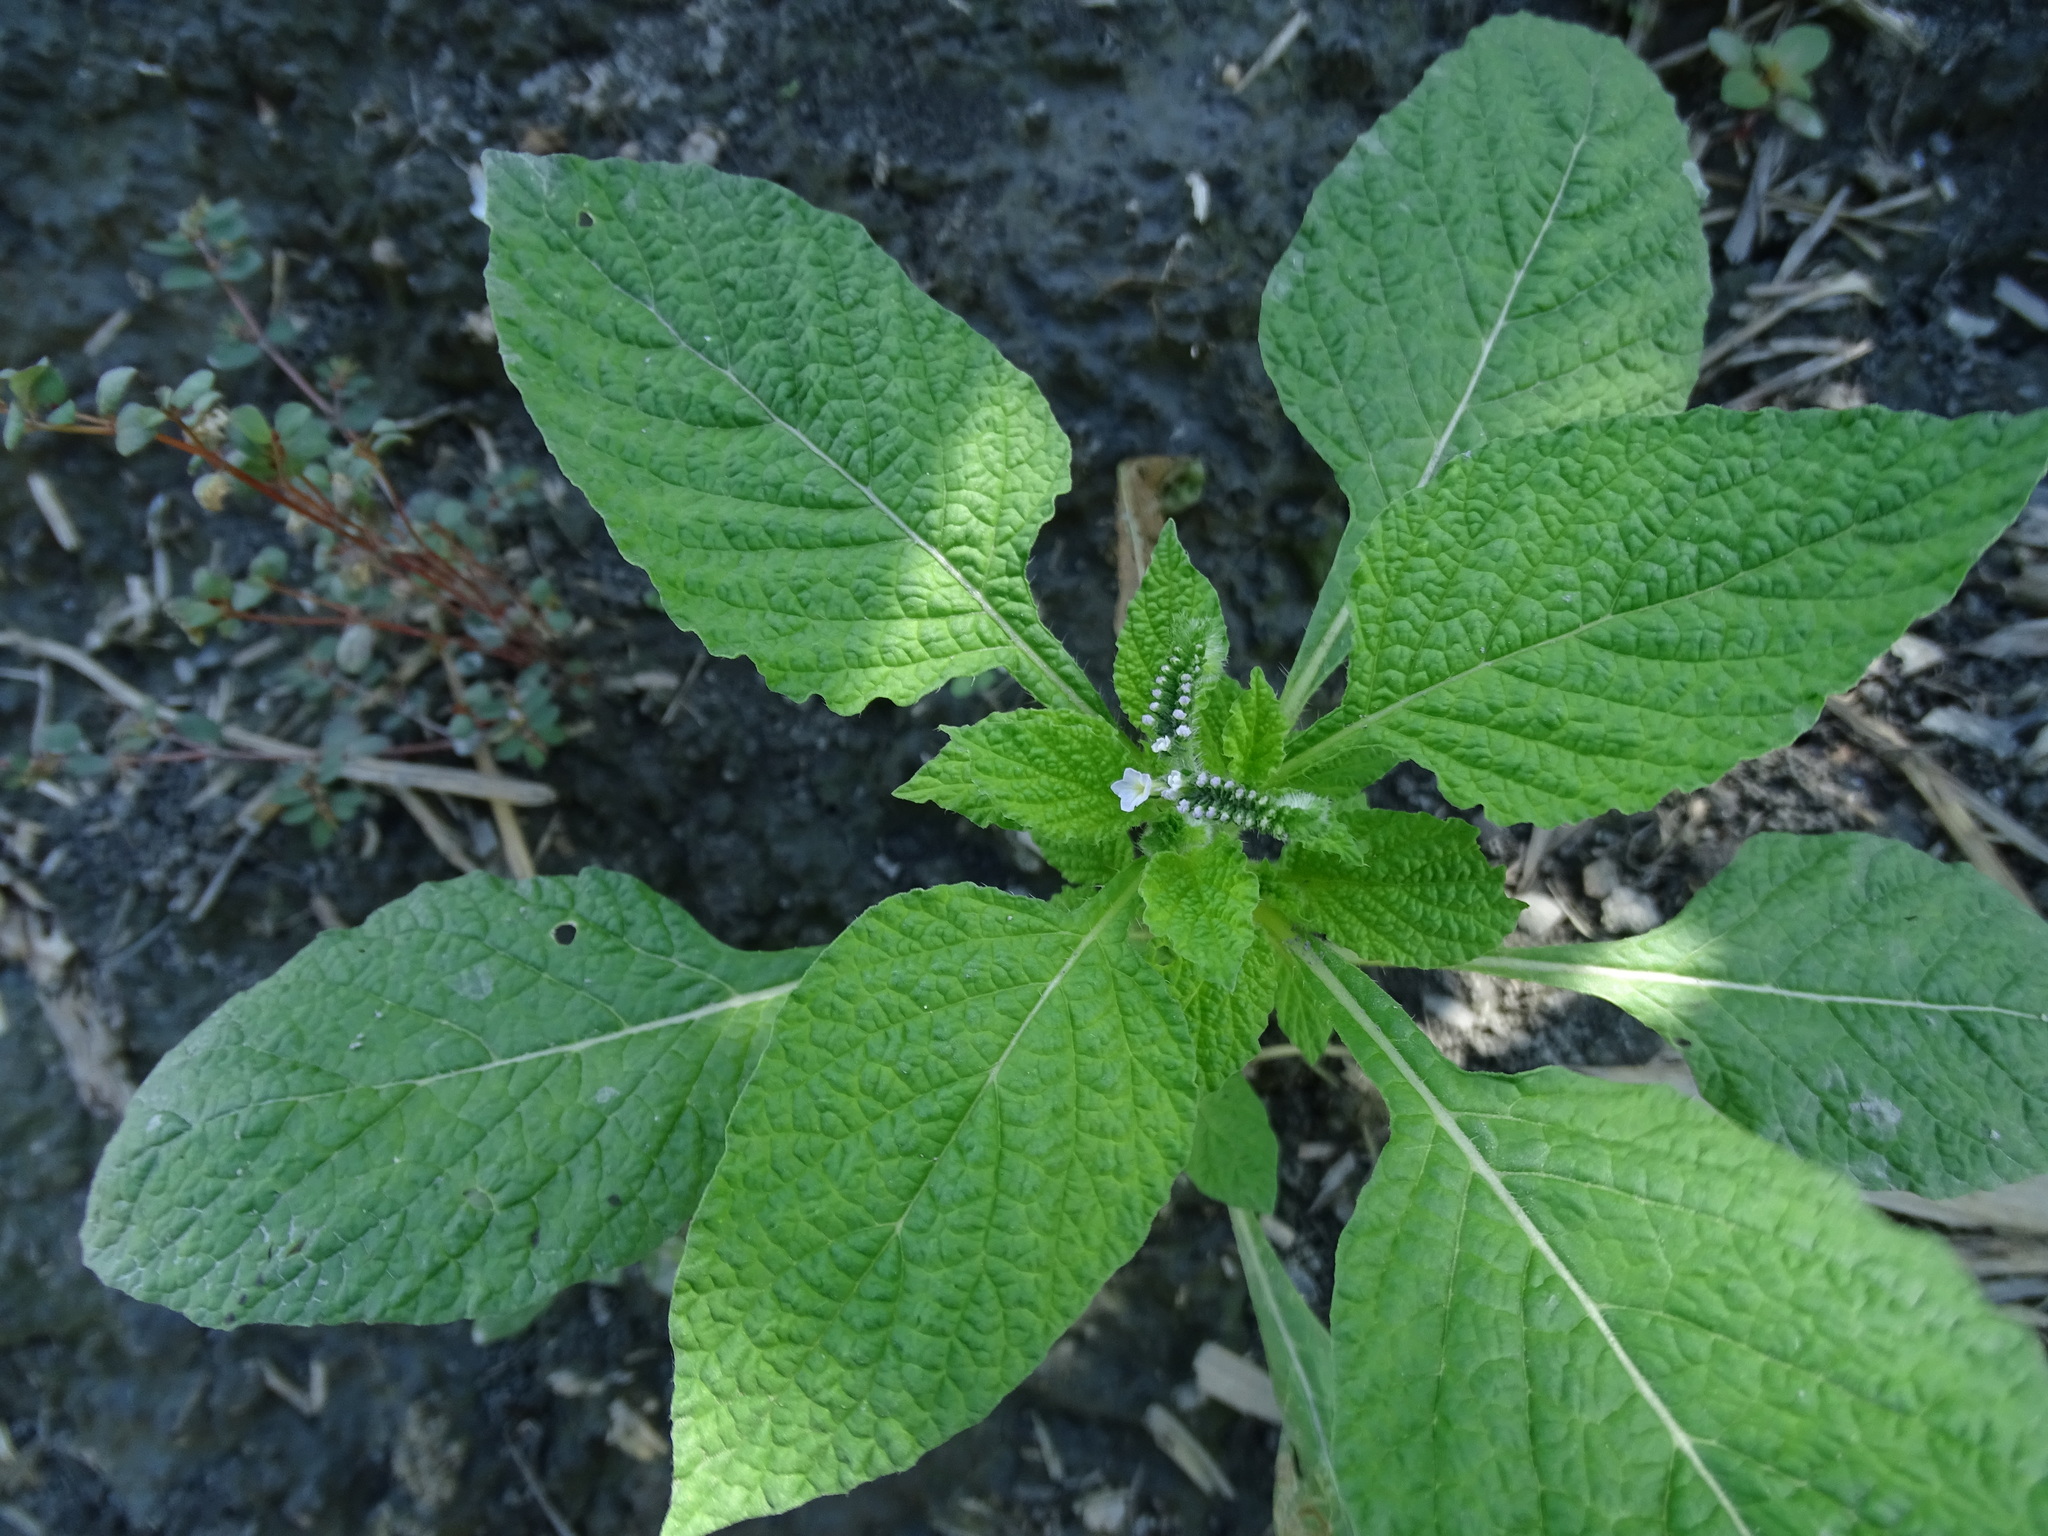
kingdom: Plantae
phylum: Tracheophyta
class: Magnoliopsida
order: Boraginales
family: Heliotropiaceae
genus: Heliotropium
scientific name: Heliotropium indicum
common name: Indian heliotrope
